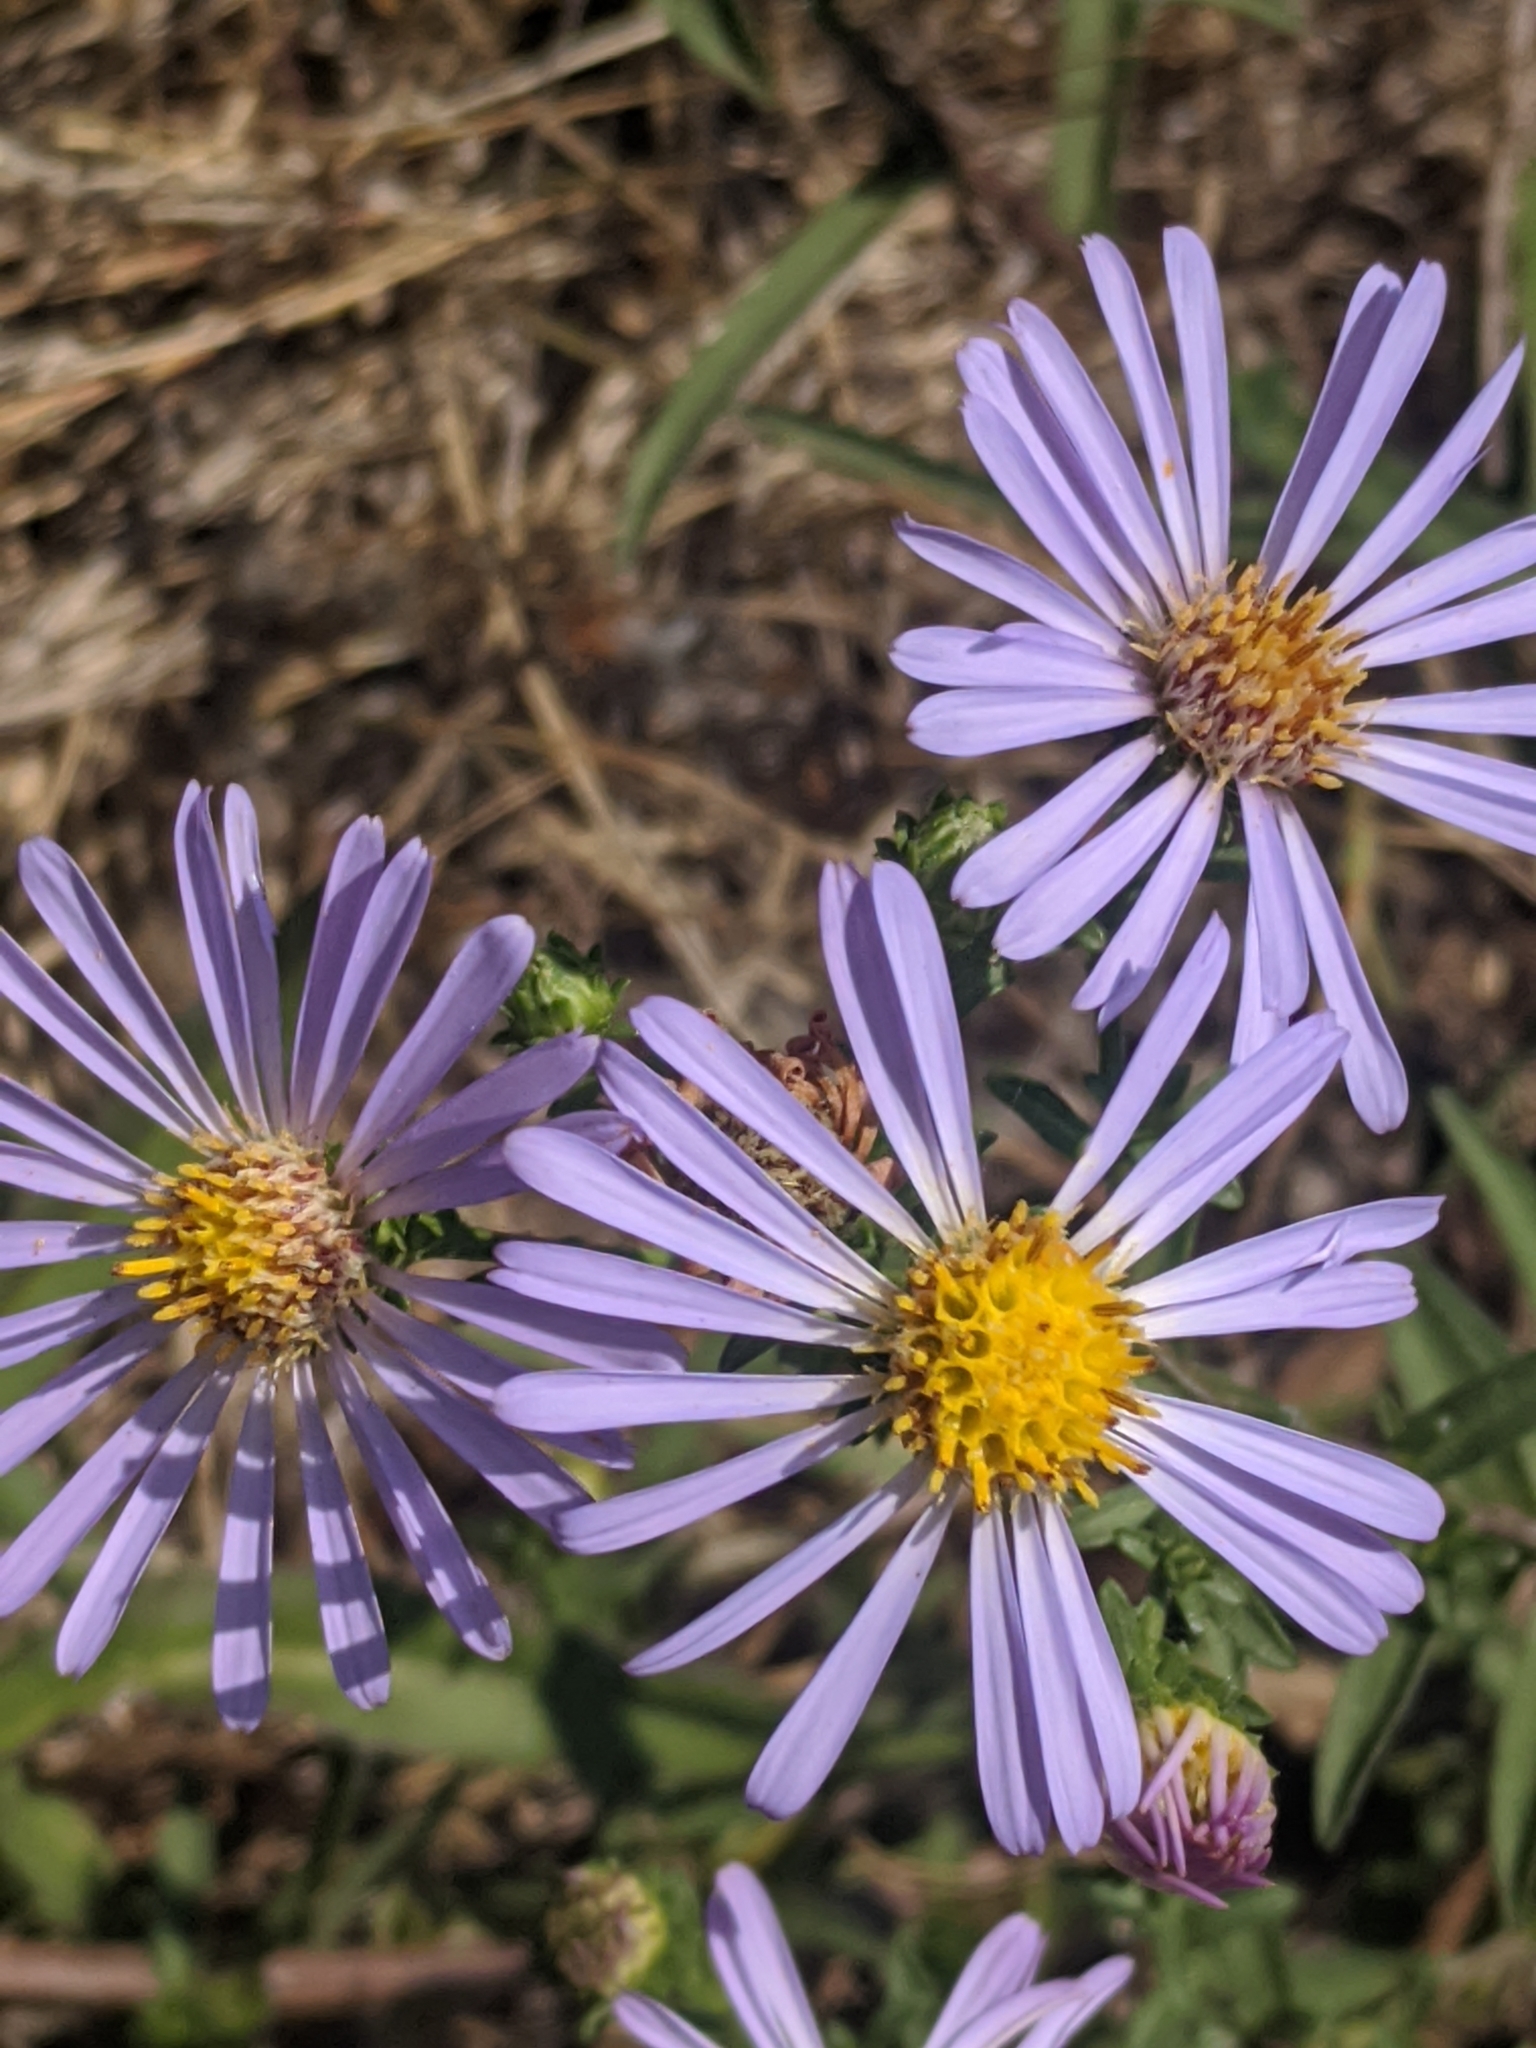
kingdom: Plantae
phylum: Tracheophyta
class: Magnoliopsida
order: Asterales
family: Asteraceae
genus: Symphyotrichum
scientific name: Symphyotrichum chilense
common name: Pacific aster
